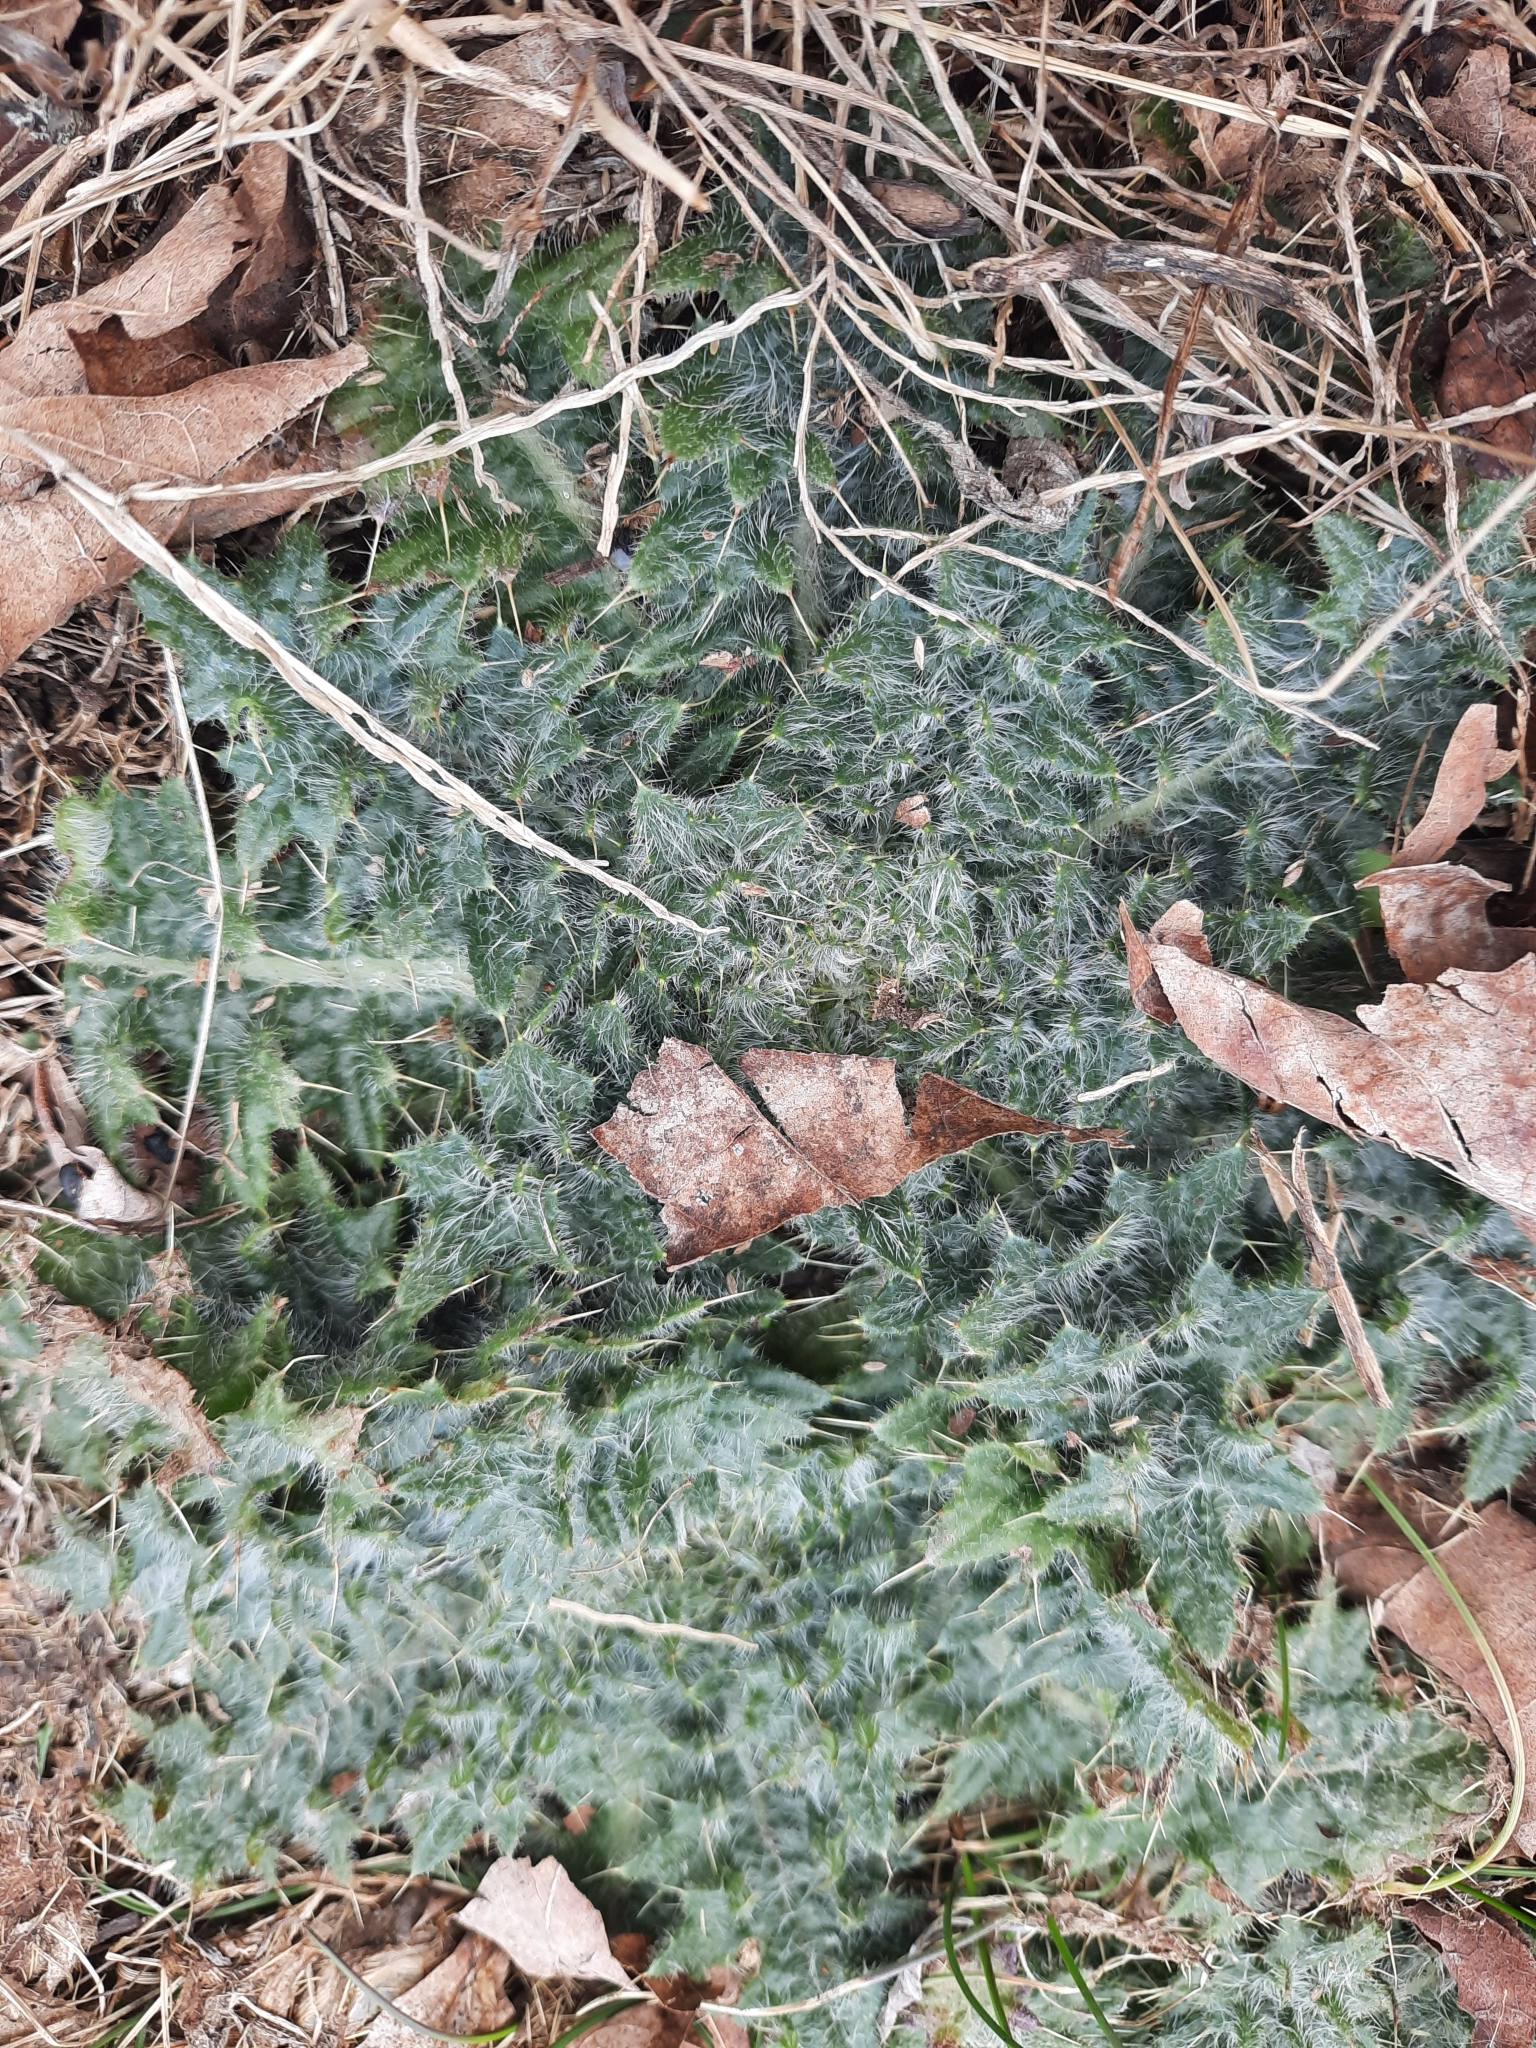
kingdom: Plantae
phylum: Tracheophyta
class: Magnoliopsida
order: Asterales
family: Asteraceae
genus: Cirsium
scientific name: Cirsium vulgare
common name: Bull thistle
